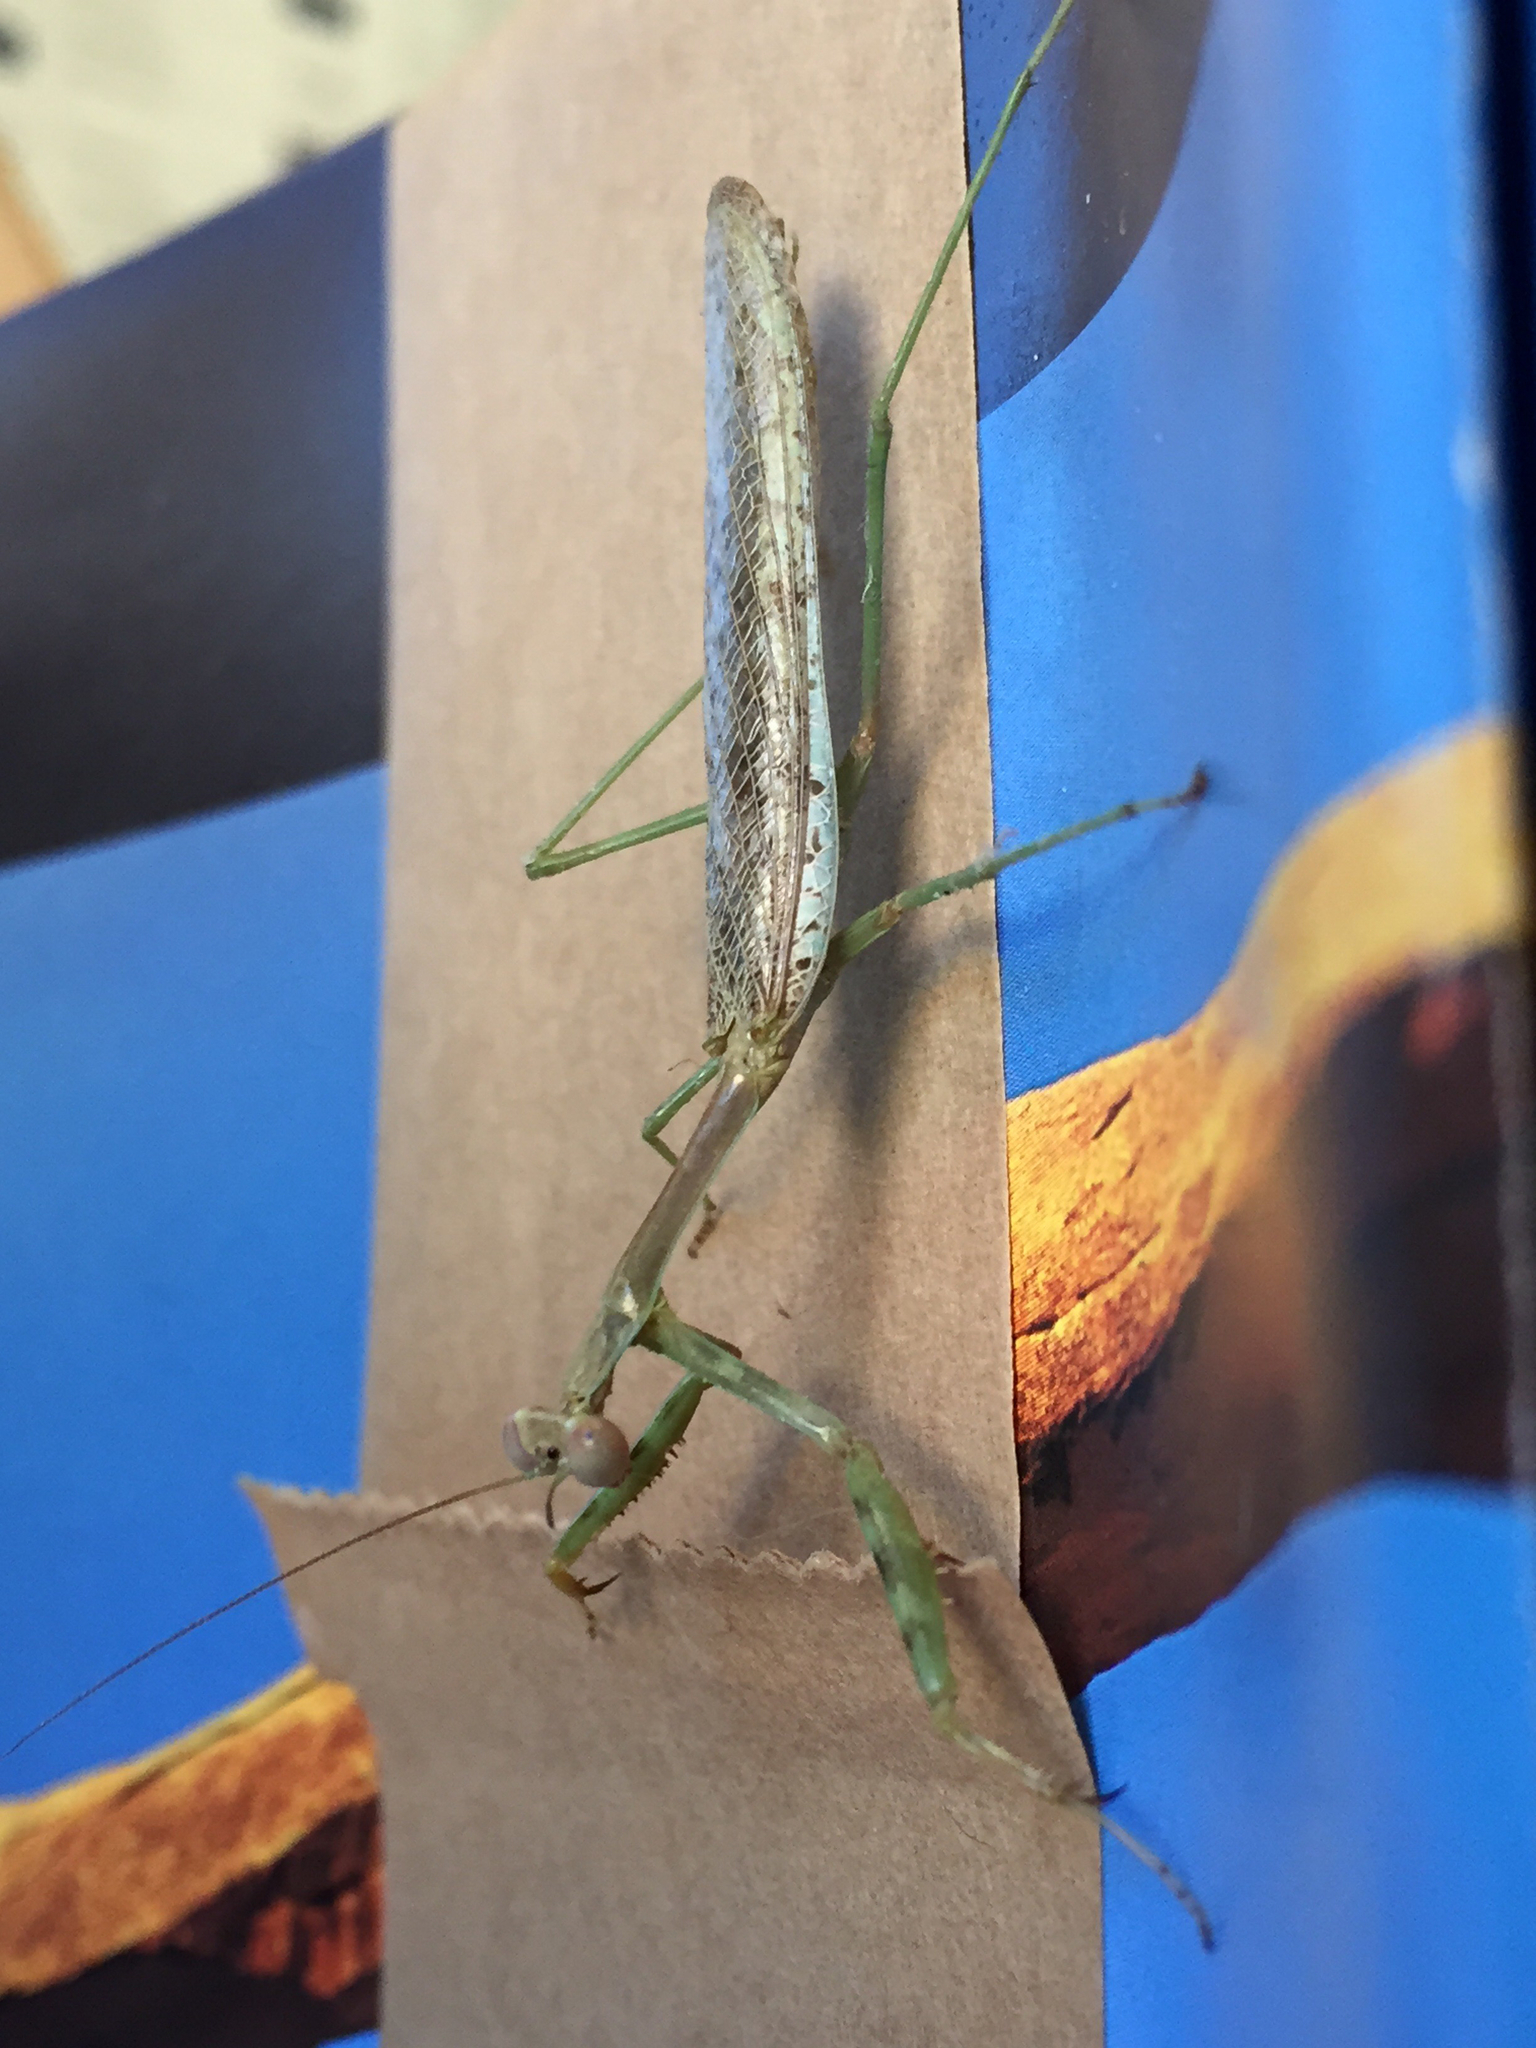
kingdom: Animalia
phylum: Arthropoda
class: Insecta
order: Mantodea
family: Mantidae
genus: Stagmomantis
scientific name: Stagmomantis californica
